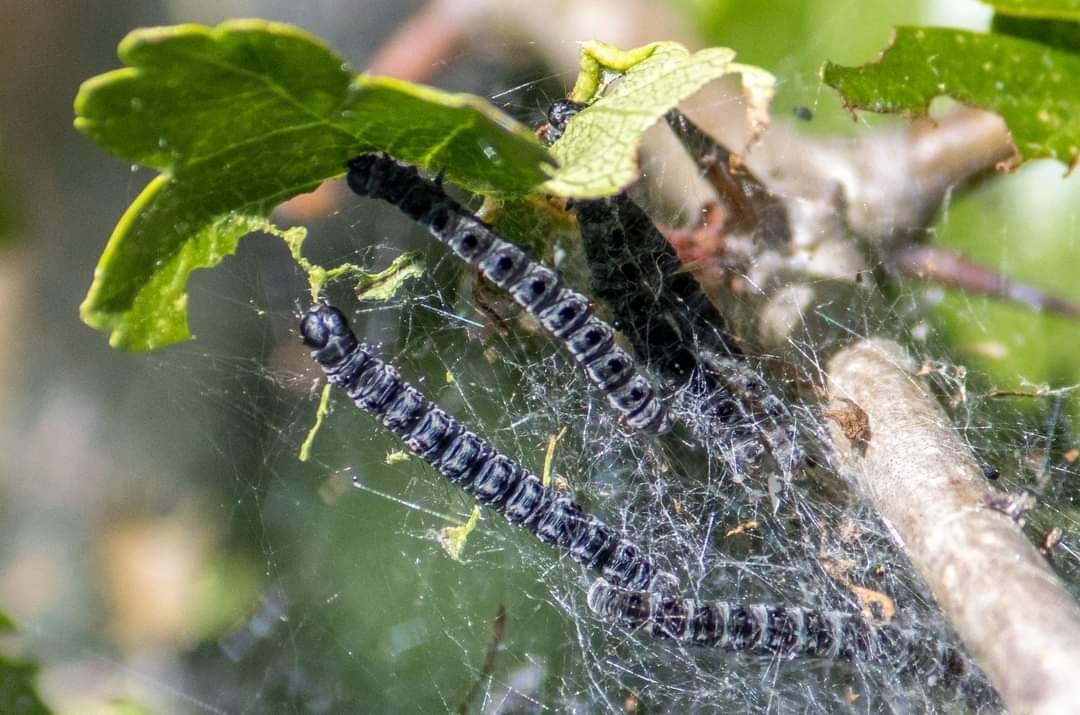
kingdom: Animalia
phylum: Arthropoda
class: Insecta
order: Lepidoptera
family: Yponomeutidae
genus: Yponomeuta
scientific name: Yponomeuta padella
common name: Orchard ermine
